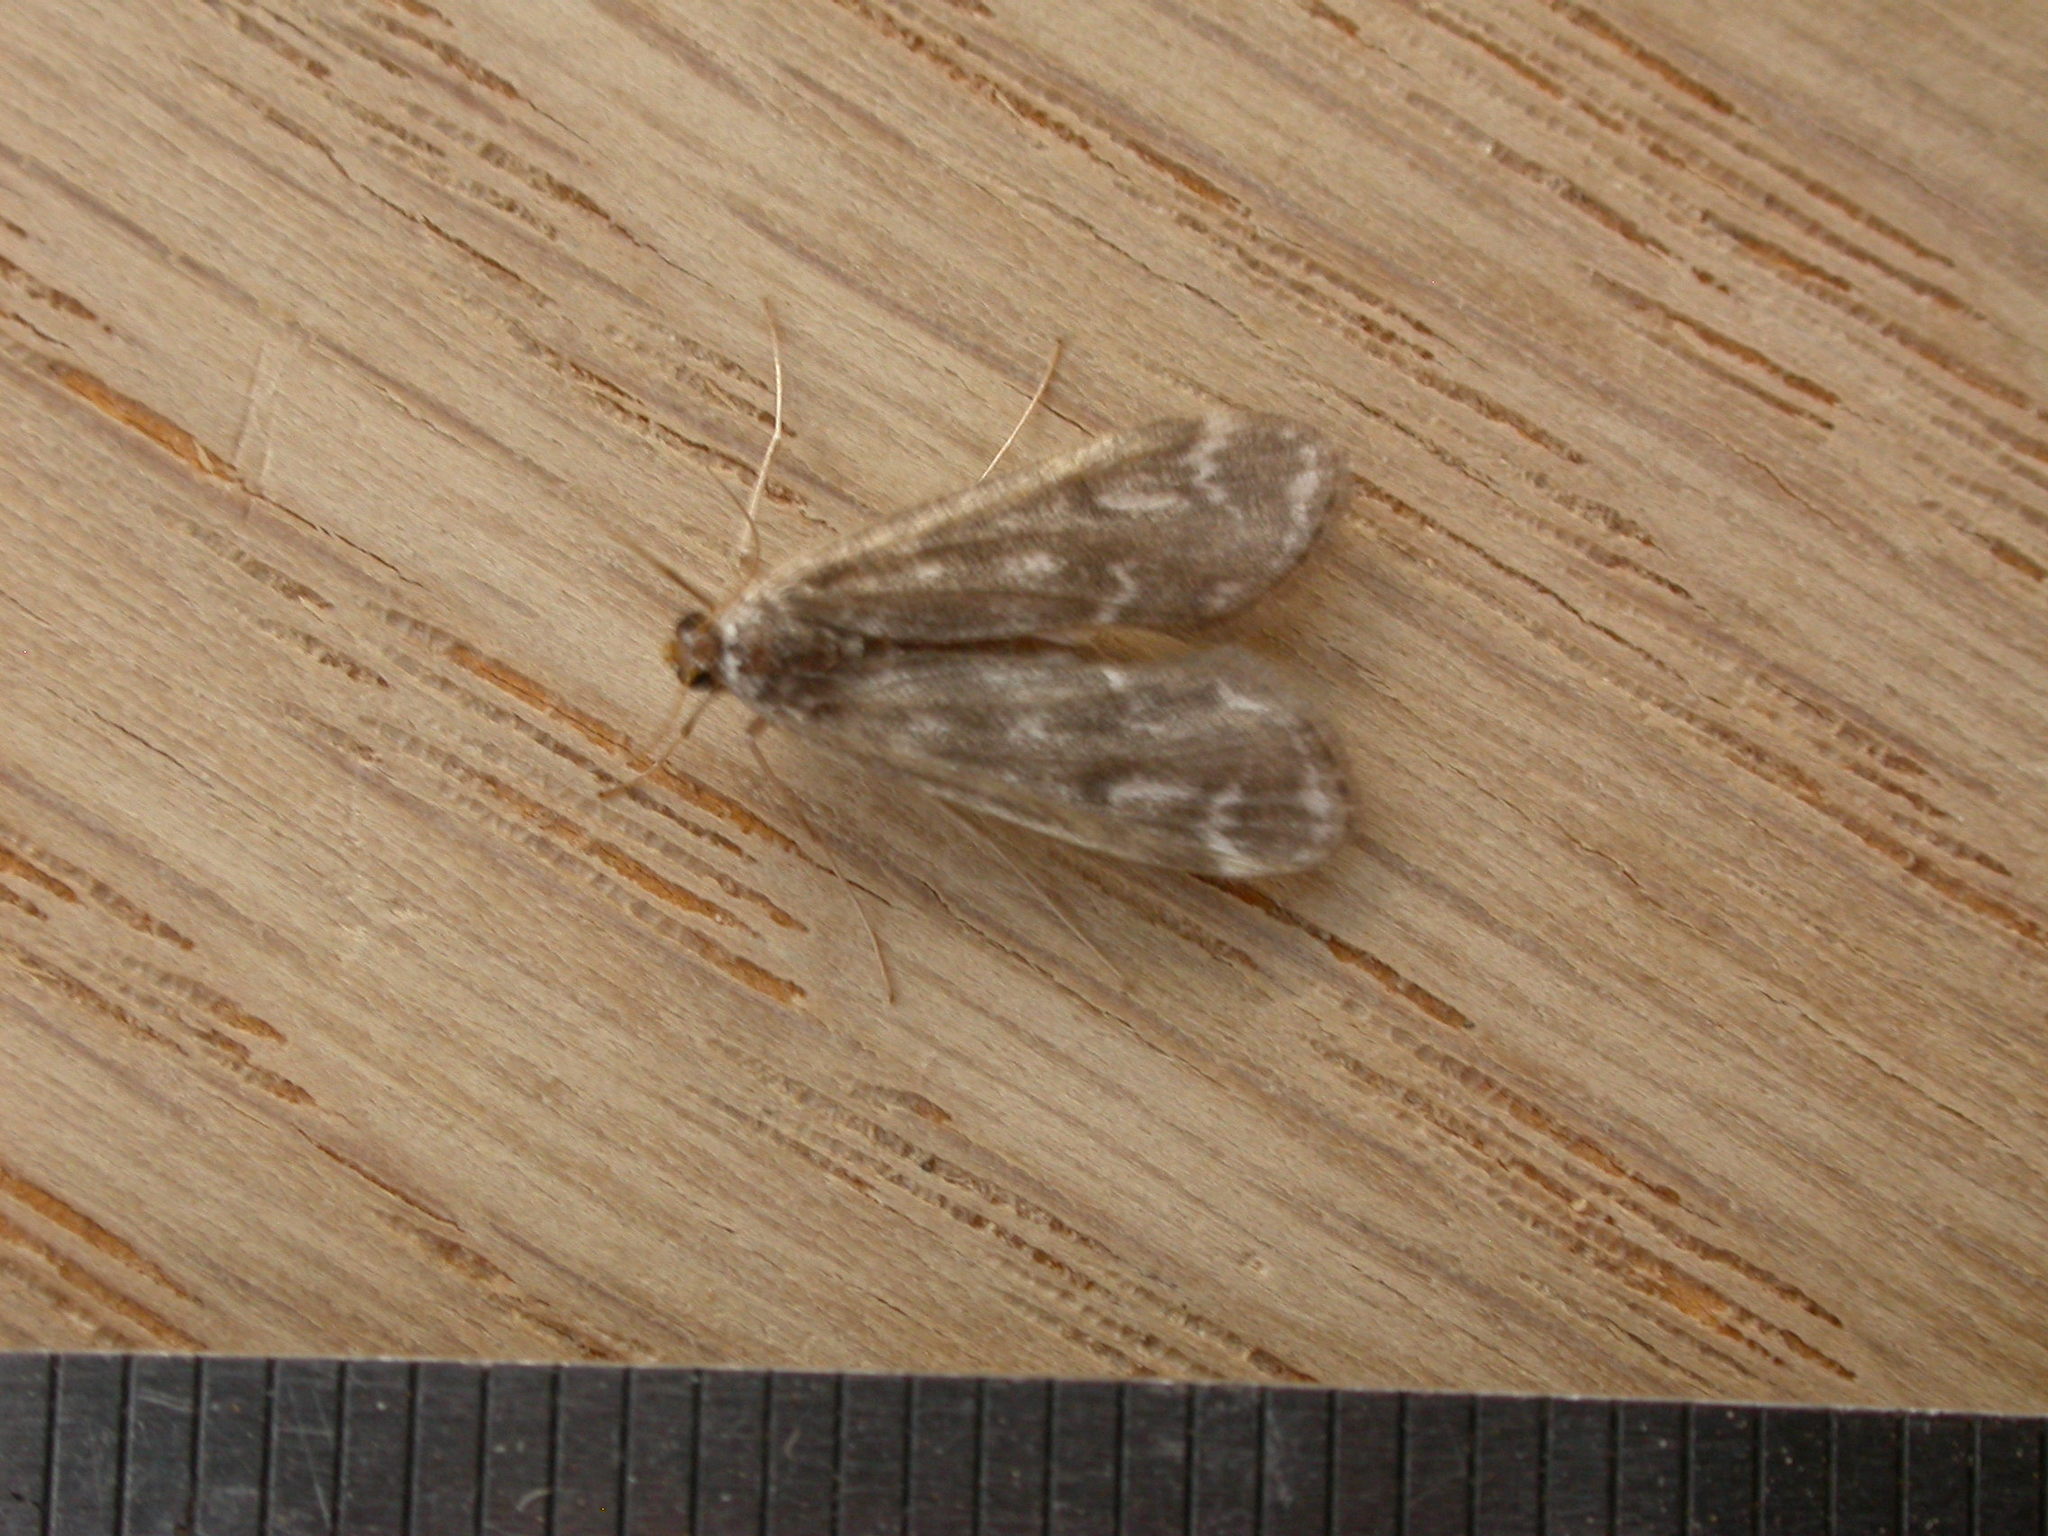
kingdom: Animalia
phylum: Arthropoda
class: Insecta
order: Lepidoptera
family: Crambidae
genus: Hygraula
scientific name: Hygraula nitens
